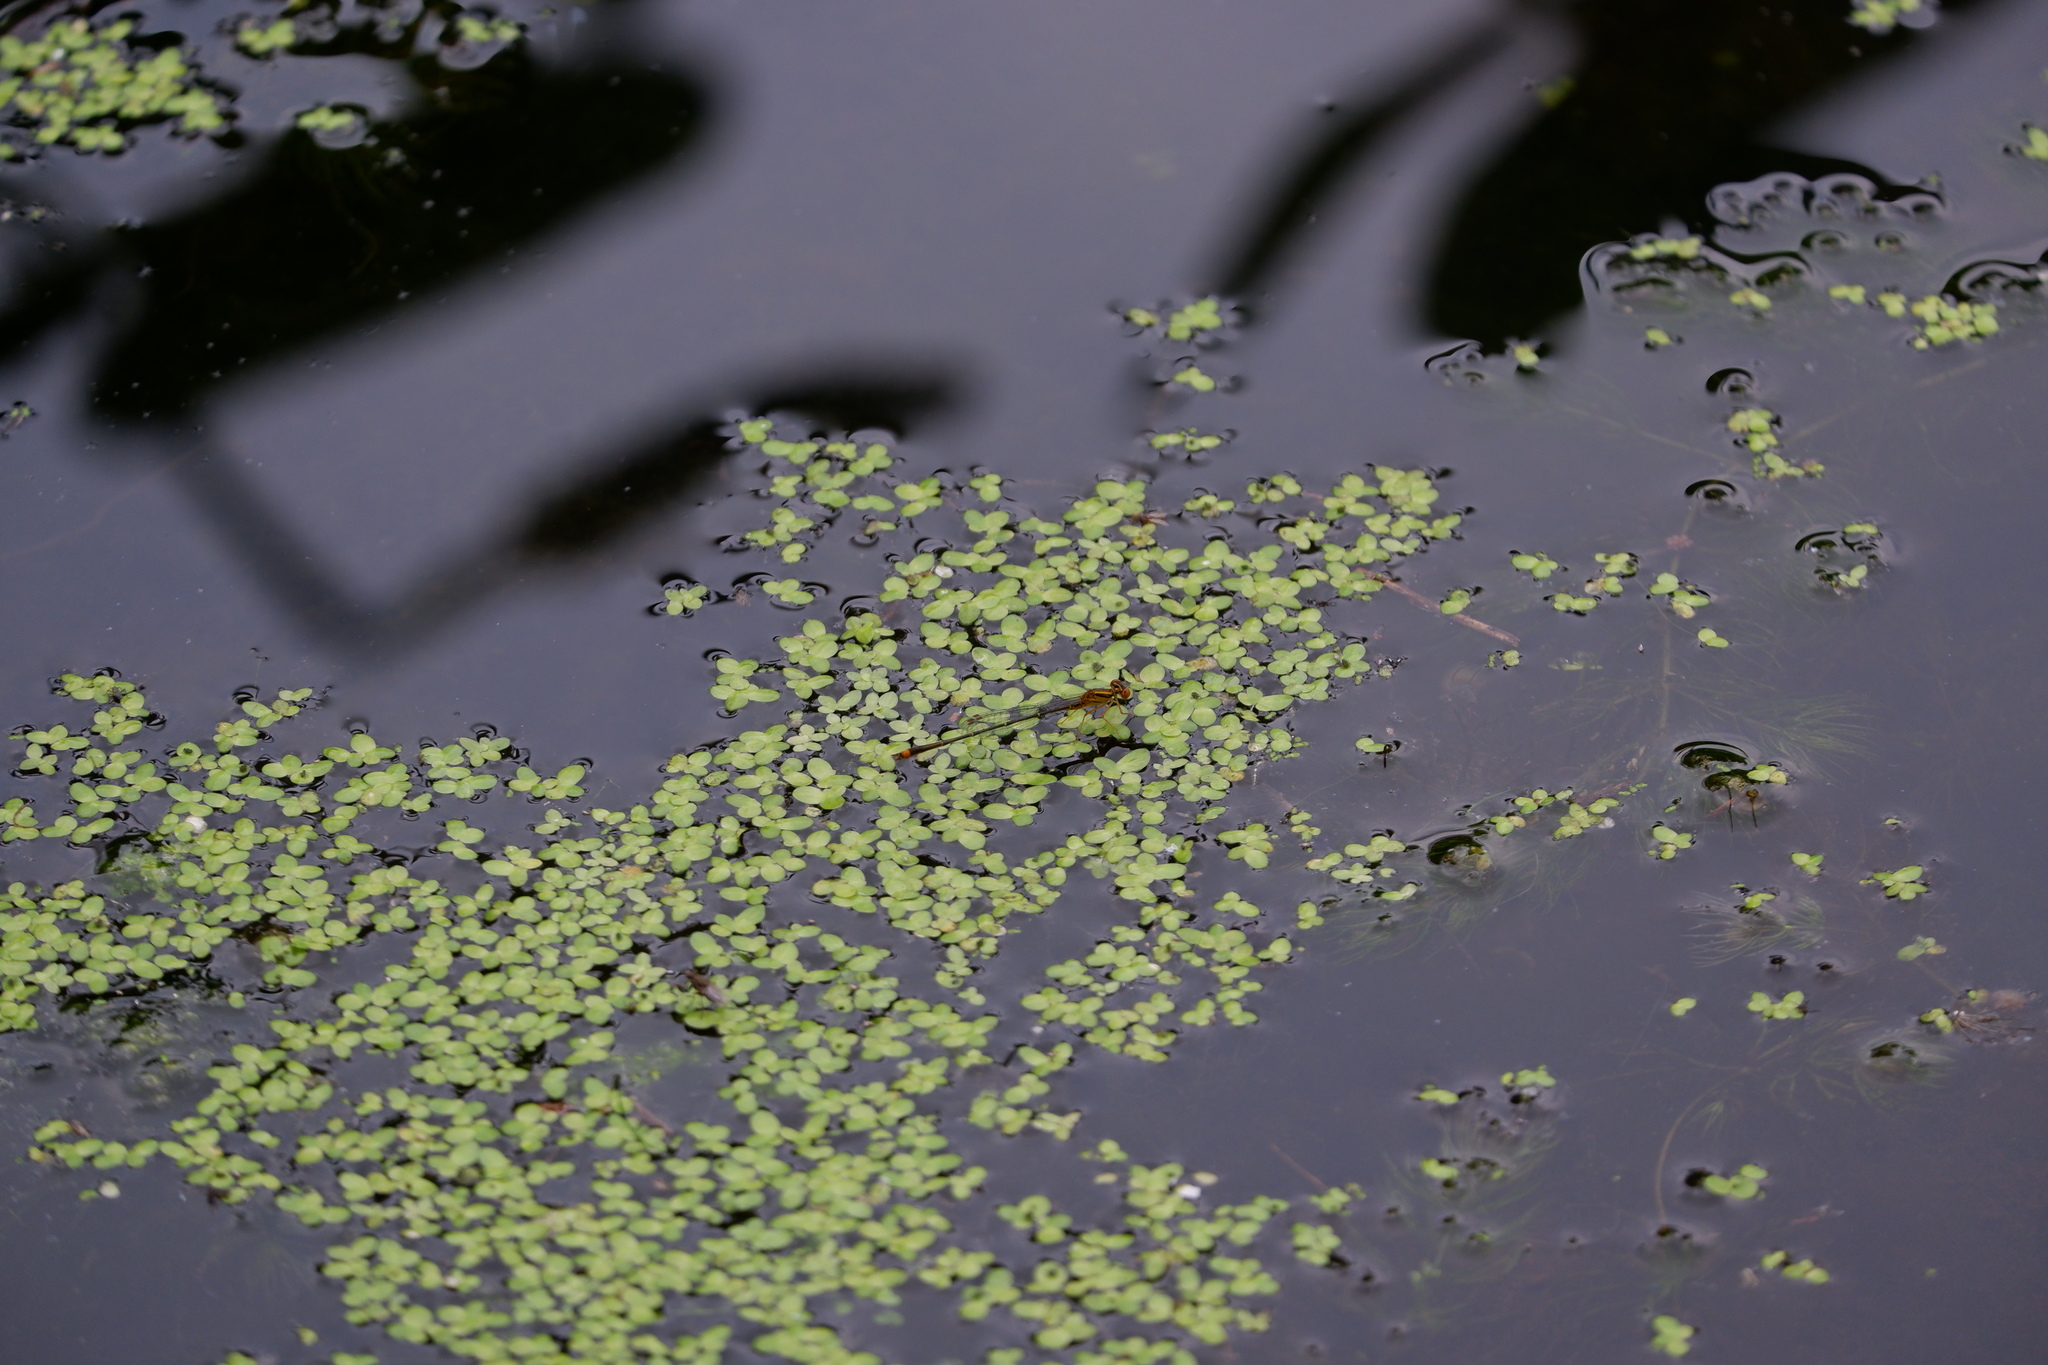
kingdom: Animalia
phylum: Arthropoda
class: Insecta
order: Odonata
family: Coenagrionidae
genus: Enallagma
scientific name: Enallagma signatum
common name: Orange bluet
